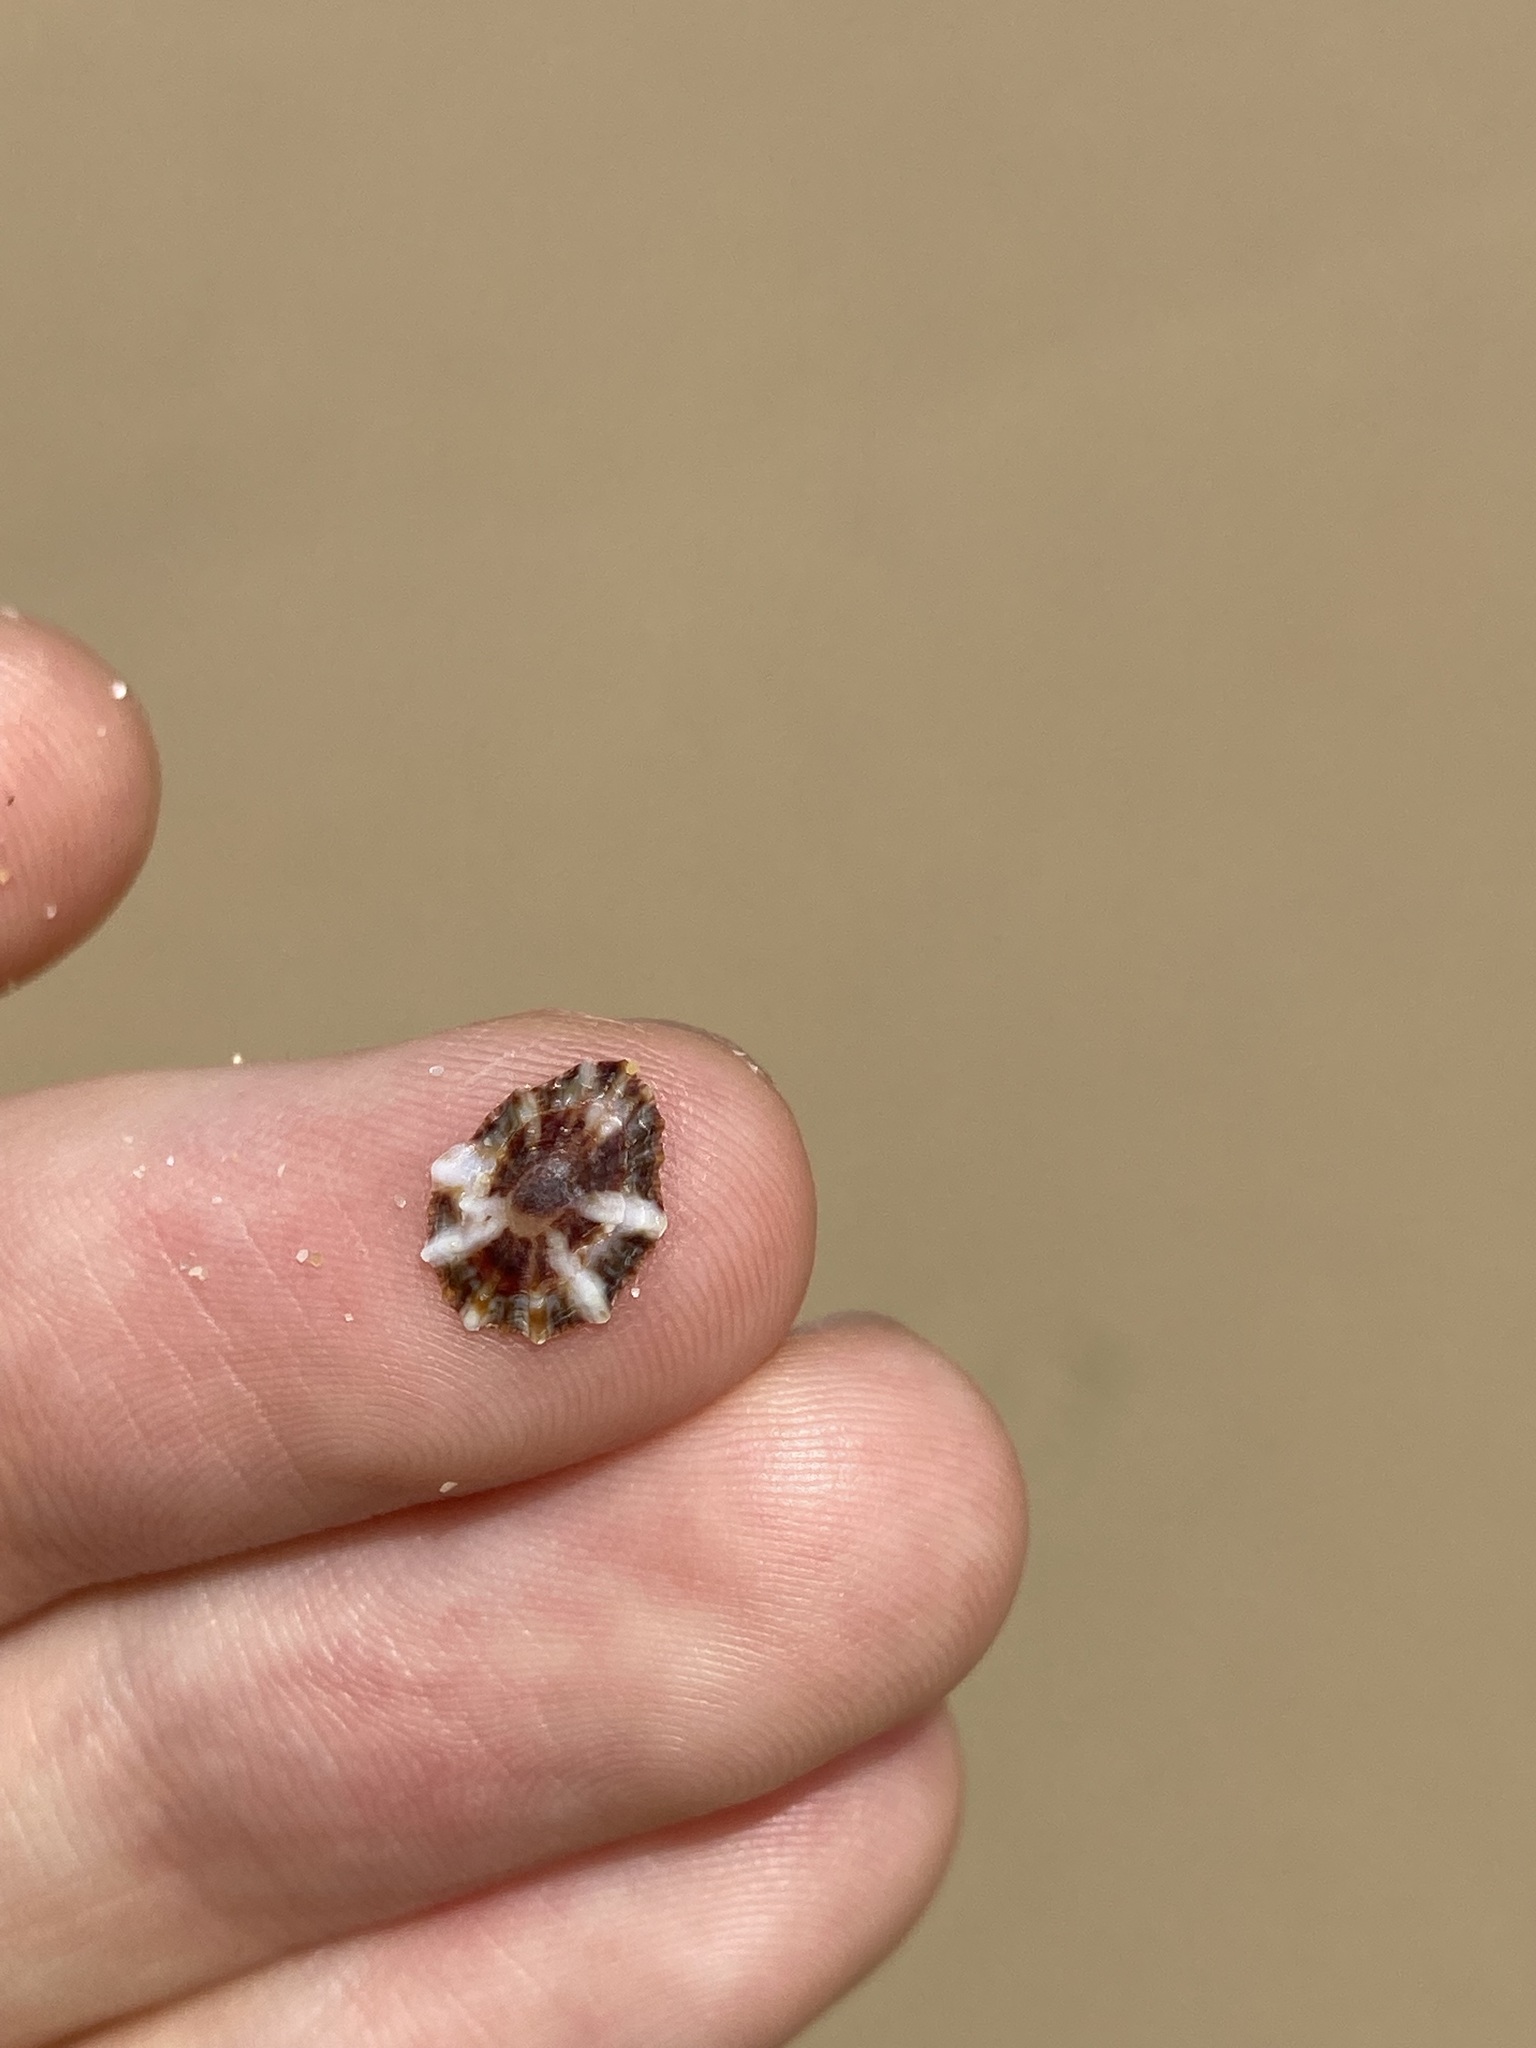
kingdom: Animalia
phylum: Mollusca
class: Gastropoda
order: Siphonariida
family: Siphonariidae
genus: Siphonaria
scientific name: Siphonaria denticulata
